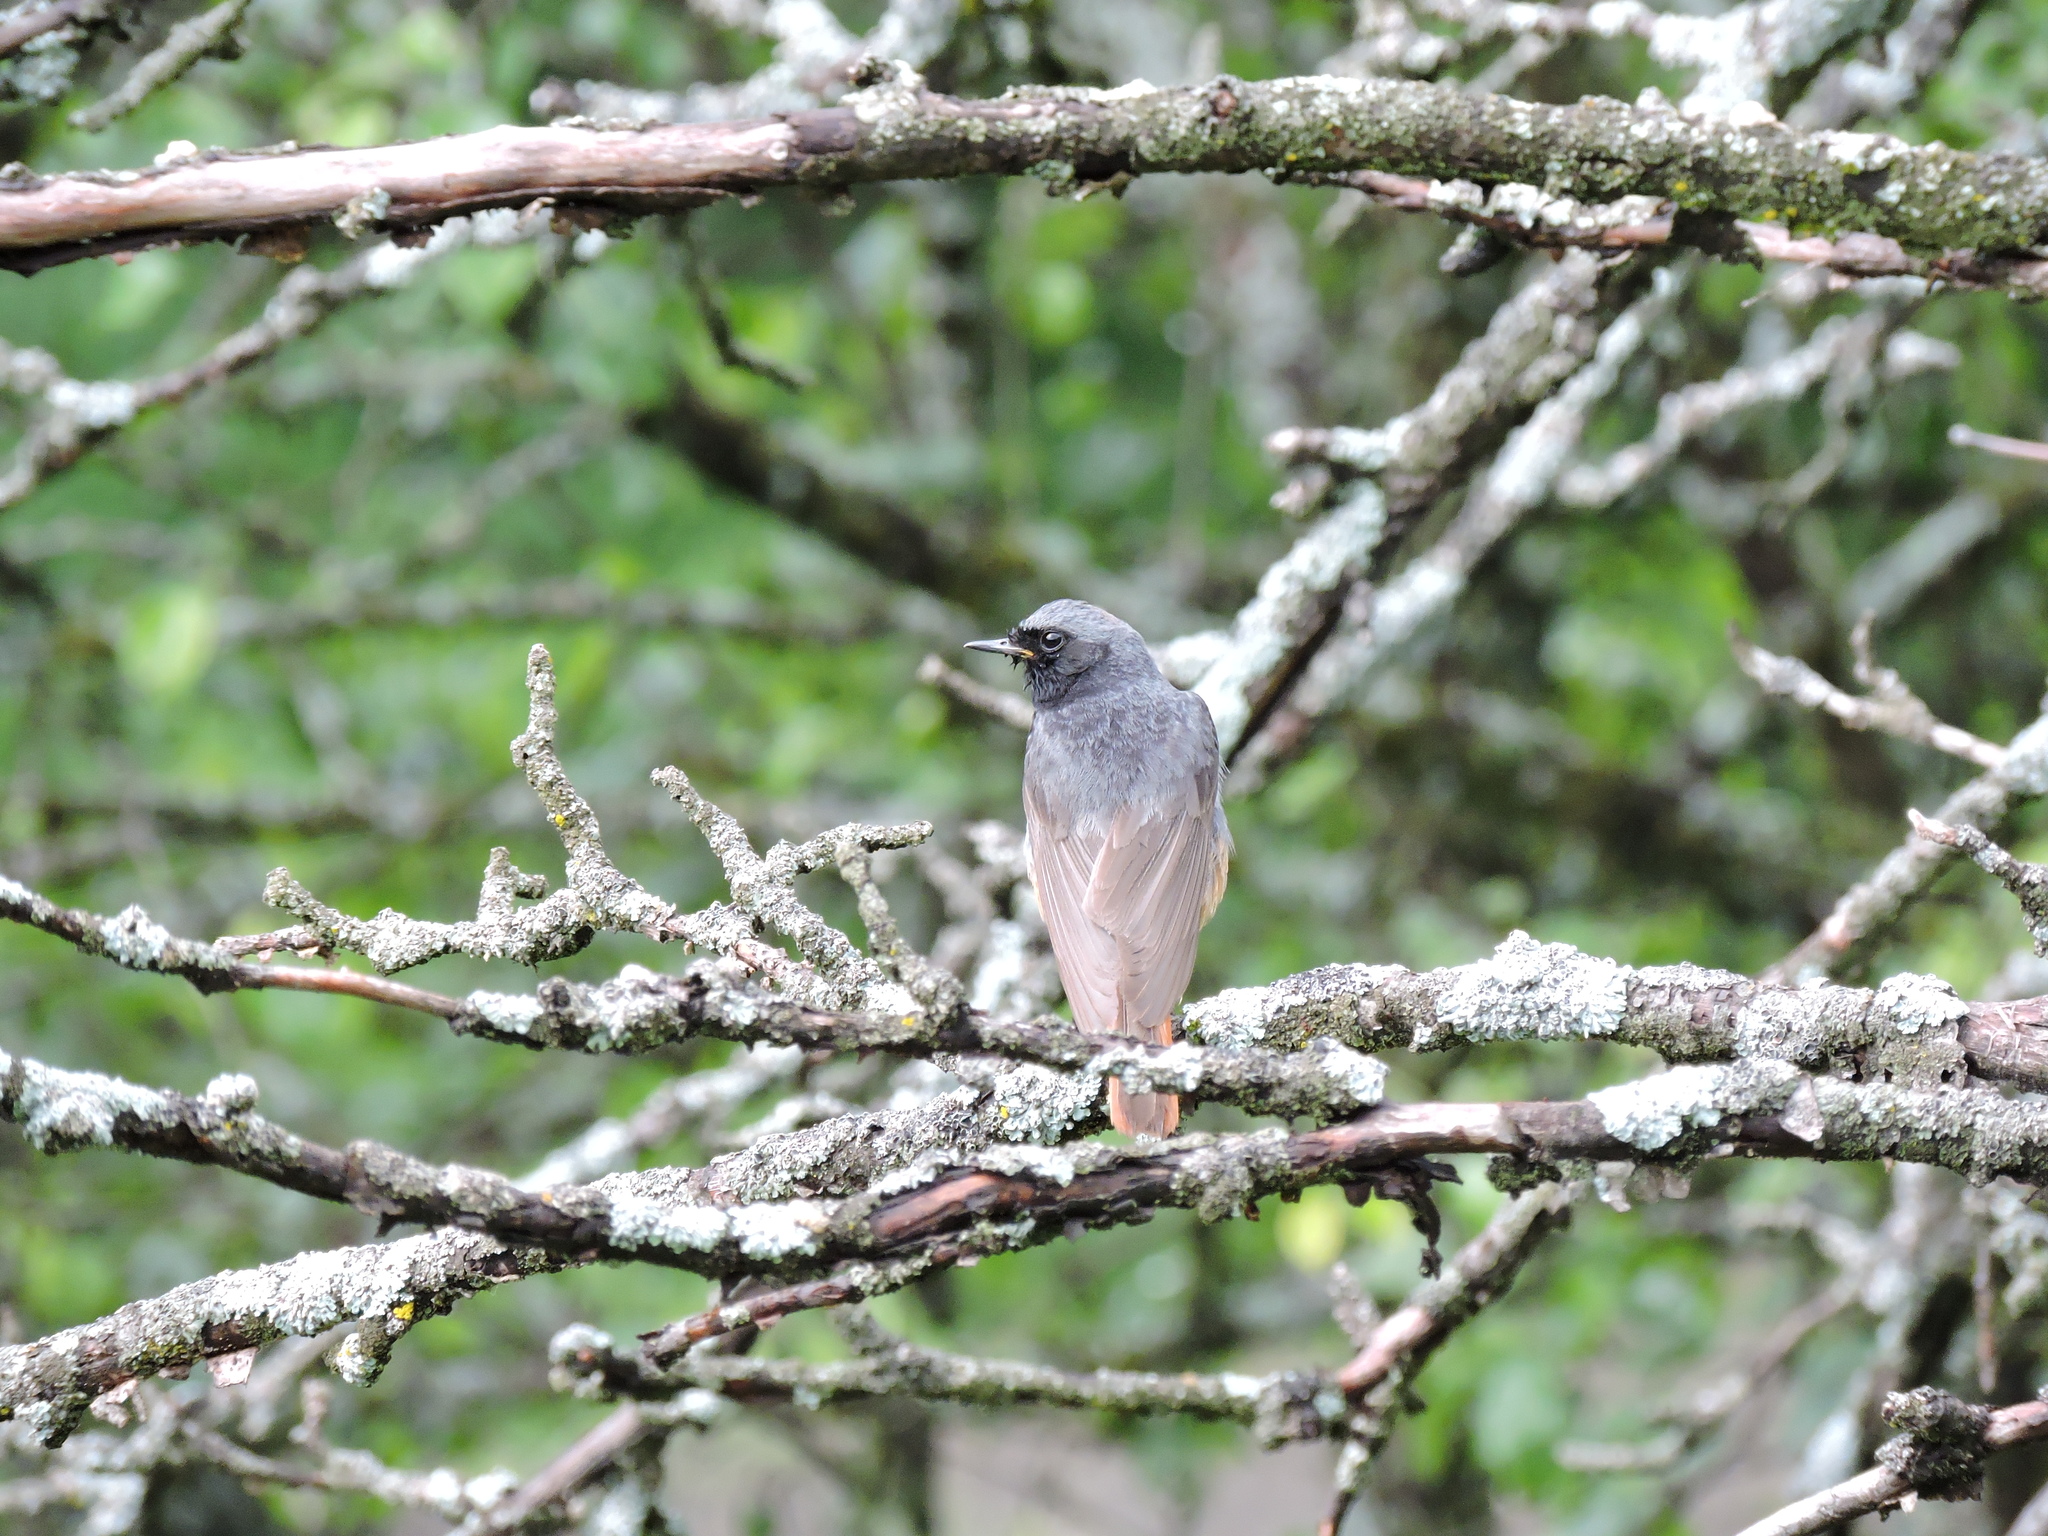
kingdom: Animalia
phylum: Chordata
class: Aves
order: Passeriformes
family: Muscicapidae
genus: Phoenicurus
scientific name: Phoenicurus ochruros
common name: Black redstart
